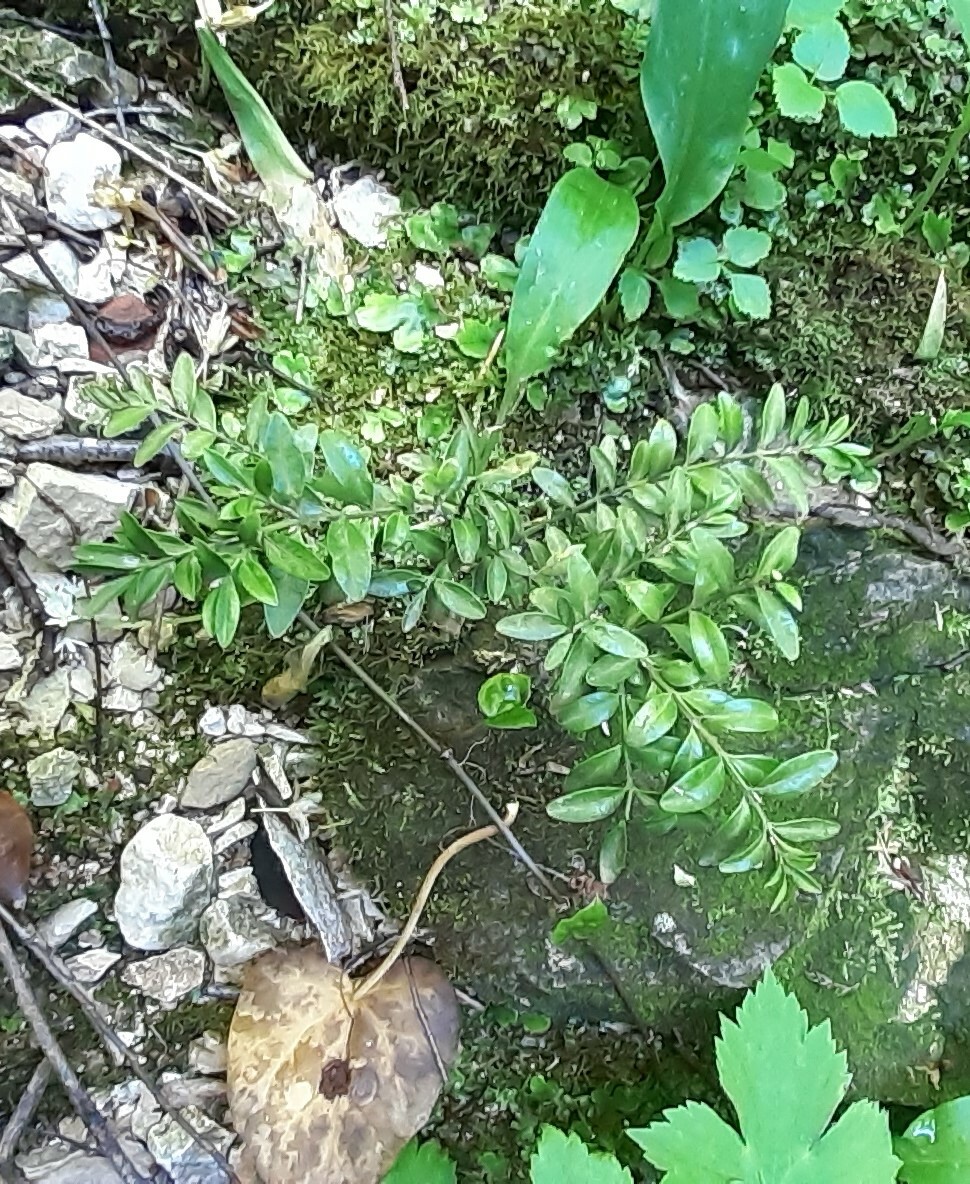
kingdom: Plantae
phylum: Tracheophyta
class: Magnoliopsida
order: Buxales
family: Buxaceae
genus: Buxus
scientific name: Buxus sempervirens
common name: Box
